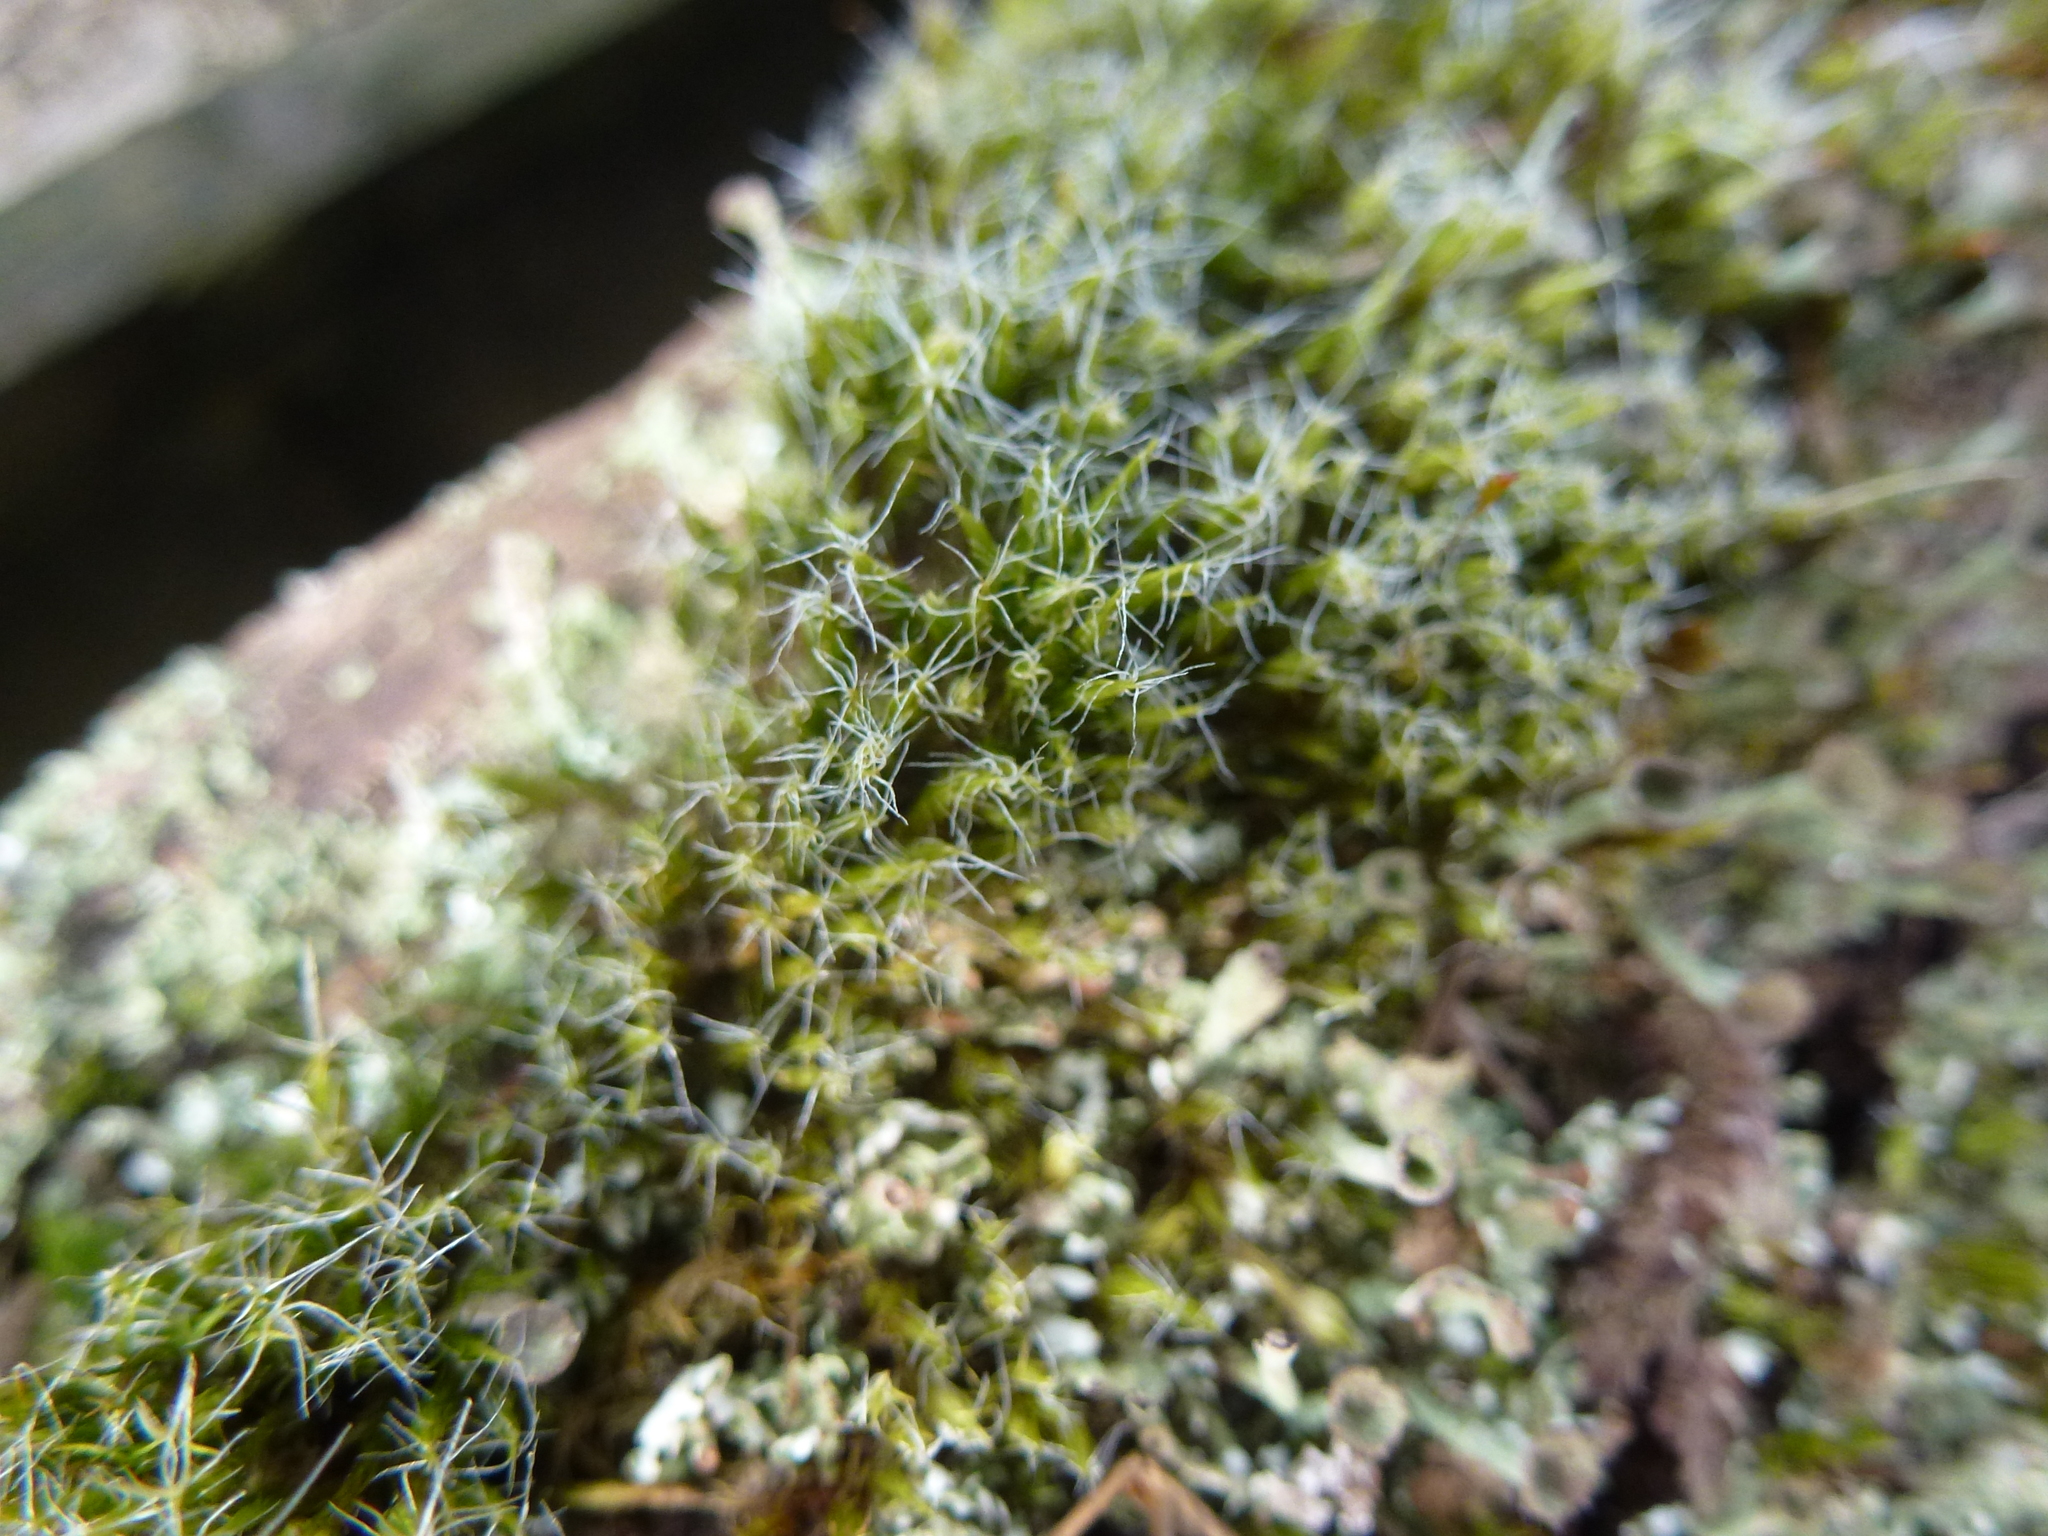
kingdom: Plantae
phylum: Bryophyta
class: Bryopsida
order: Dicranales
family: Leucobryaceae
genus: Campylopus
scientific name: Campylopus introflexus
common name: Heath star moss
